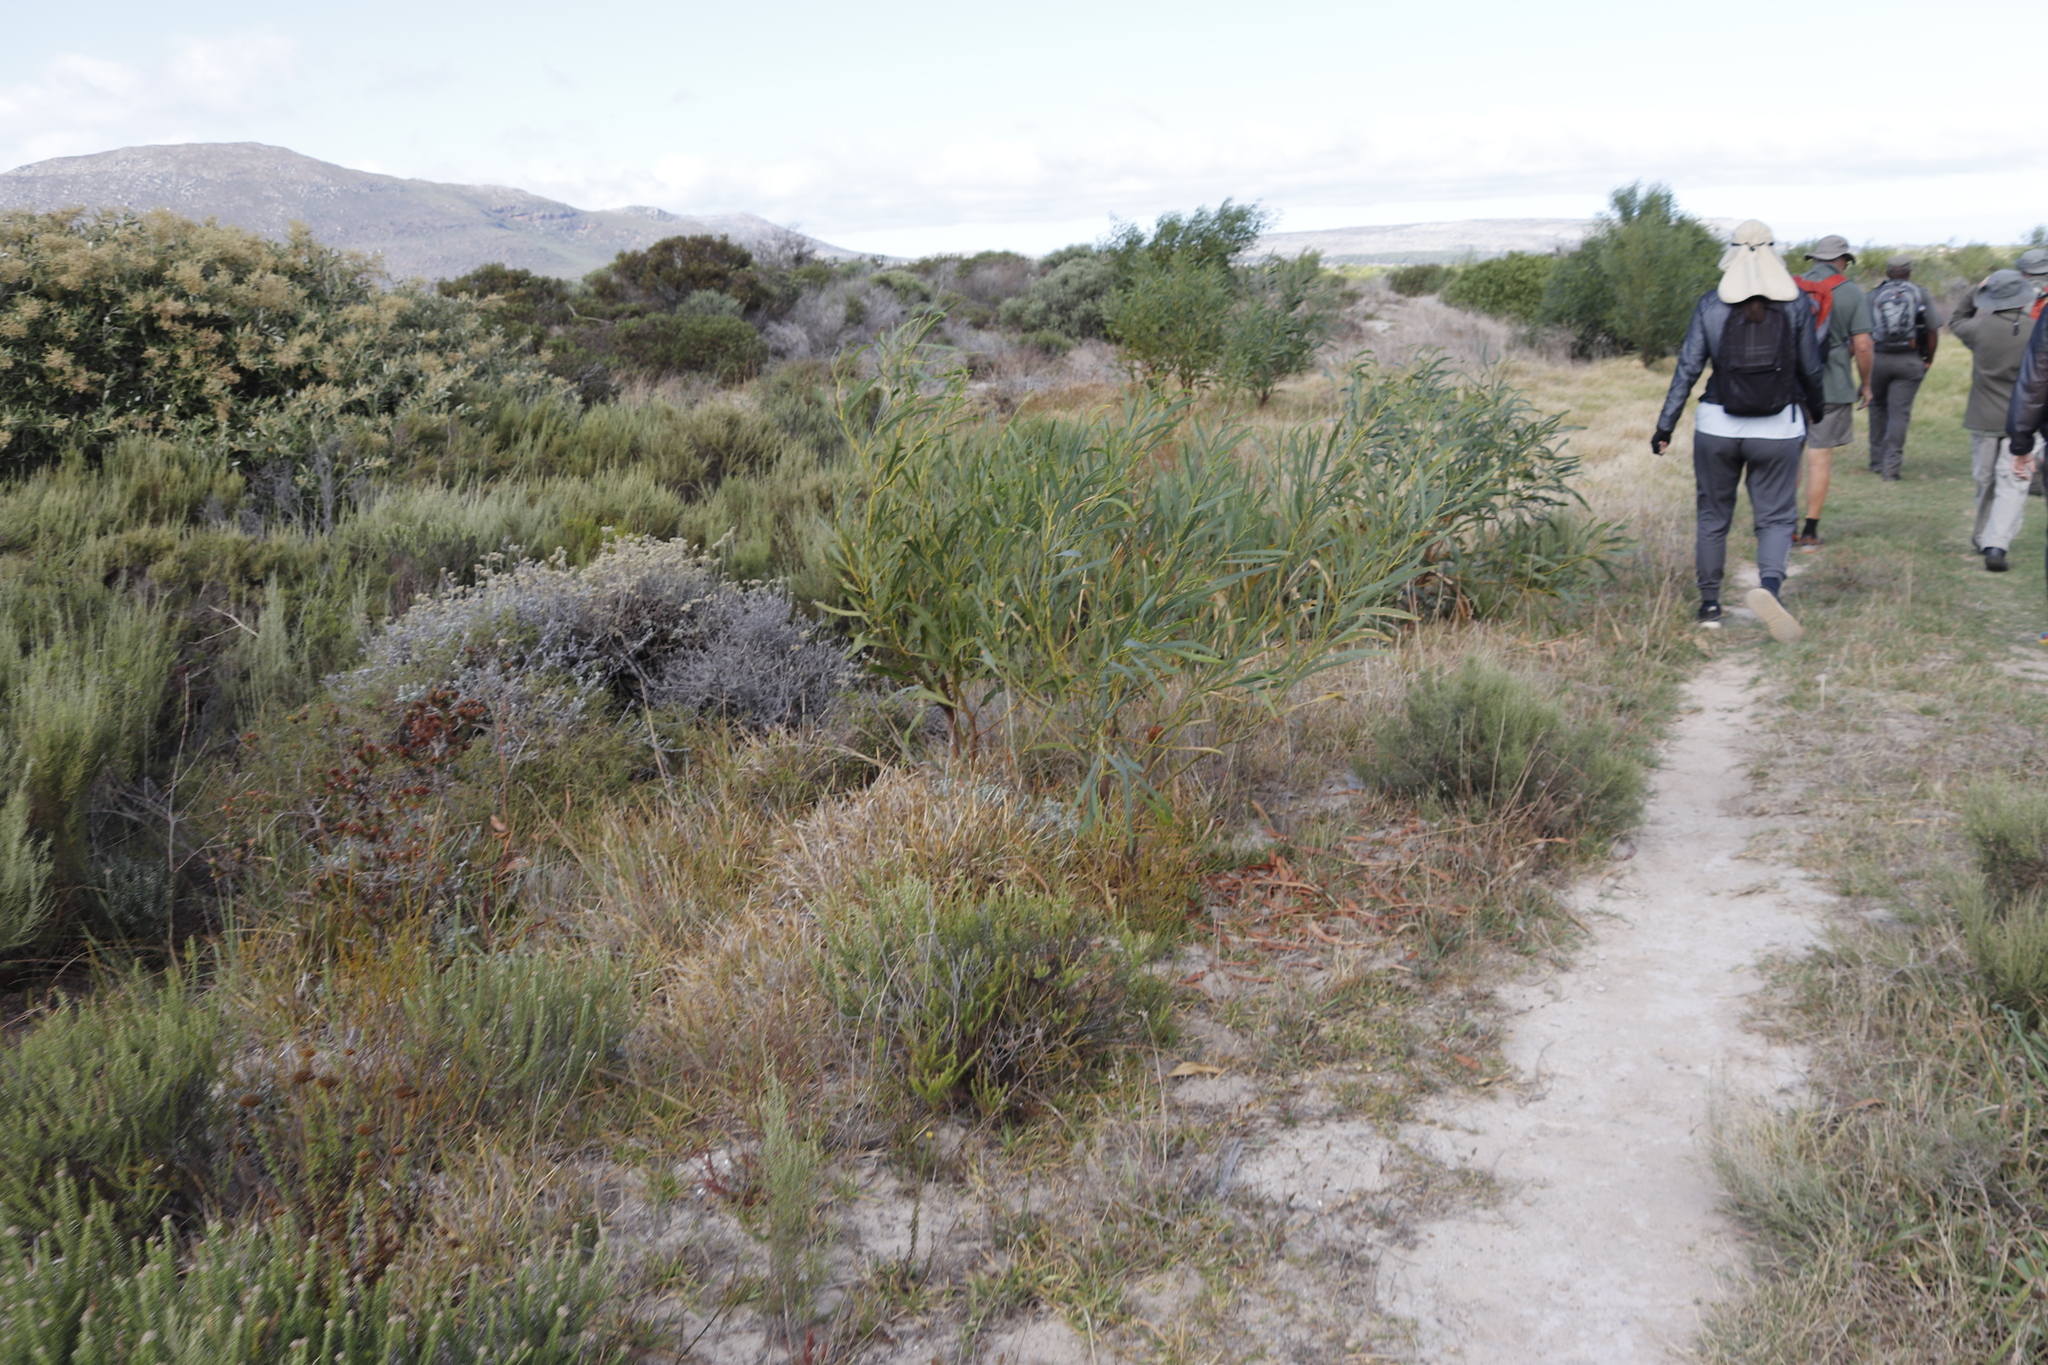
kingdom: Plantae
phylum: Tracheophyta
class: Magnoliopsida
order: Fabales
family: Fabaceae
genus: Acacia
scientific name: Acacia saligna
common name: Orange wattle
